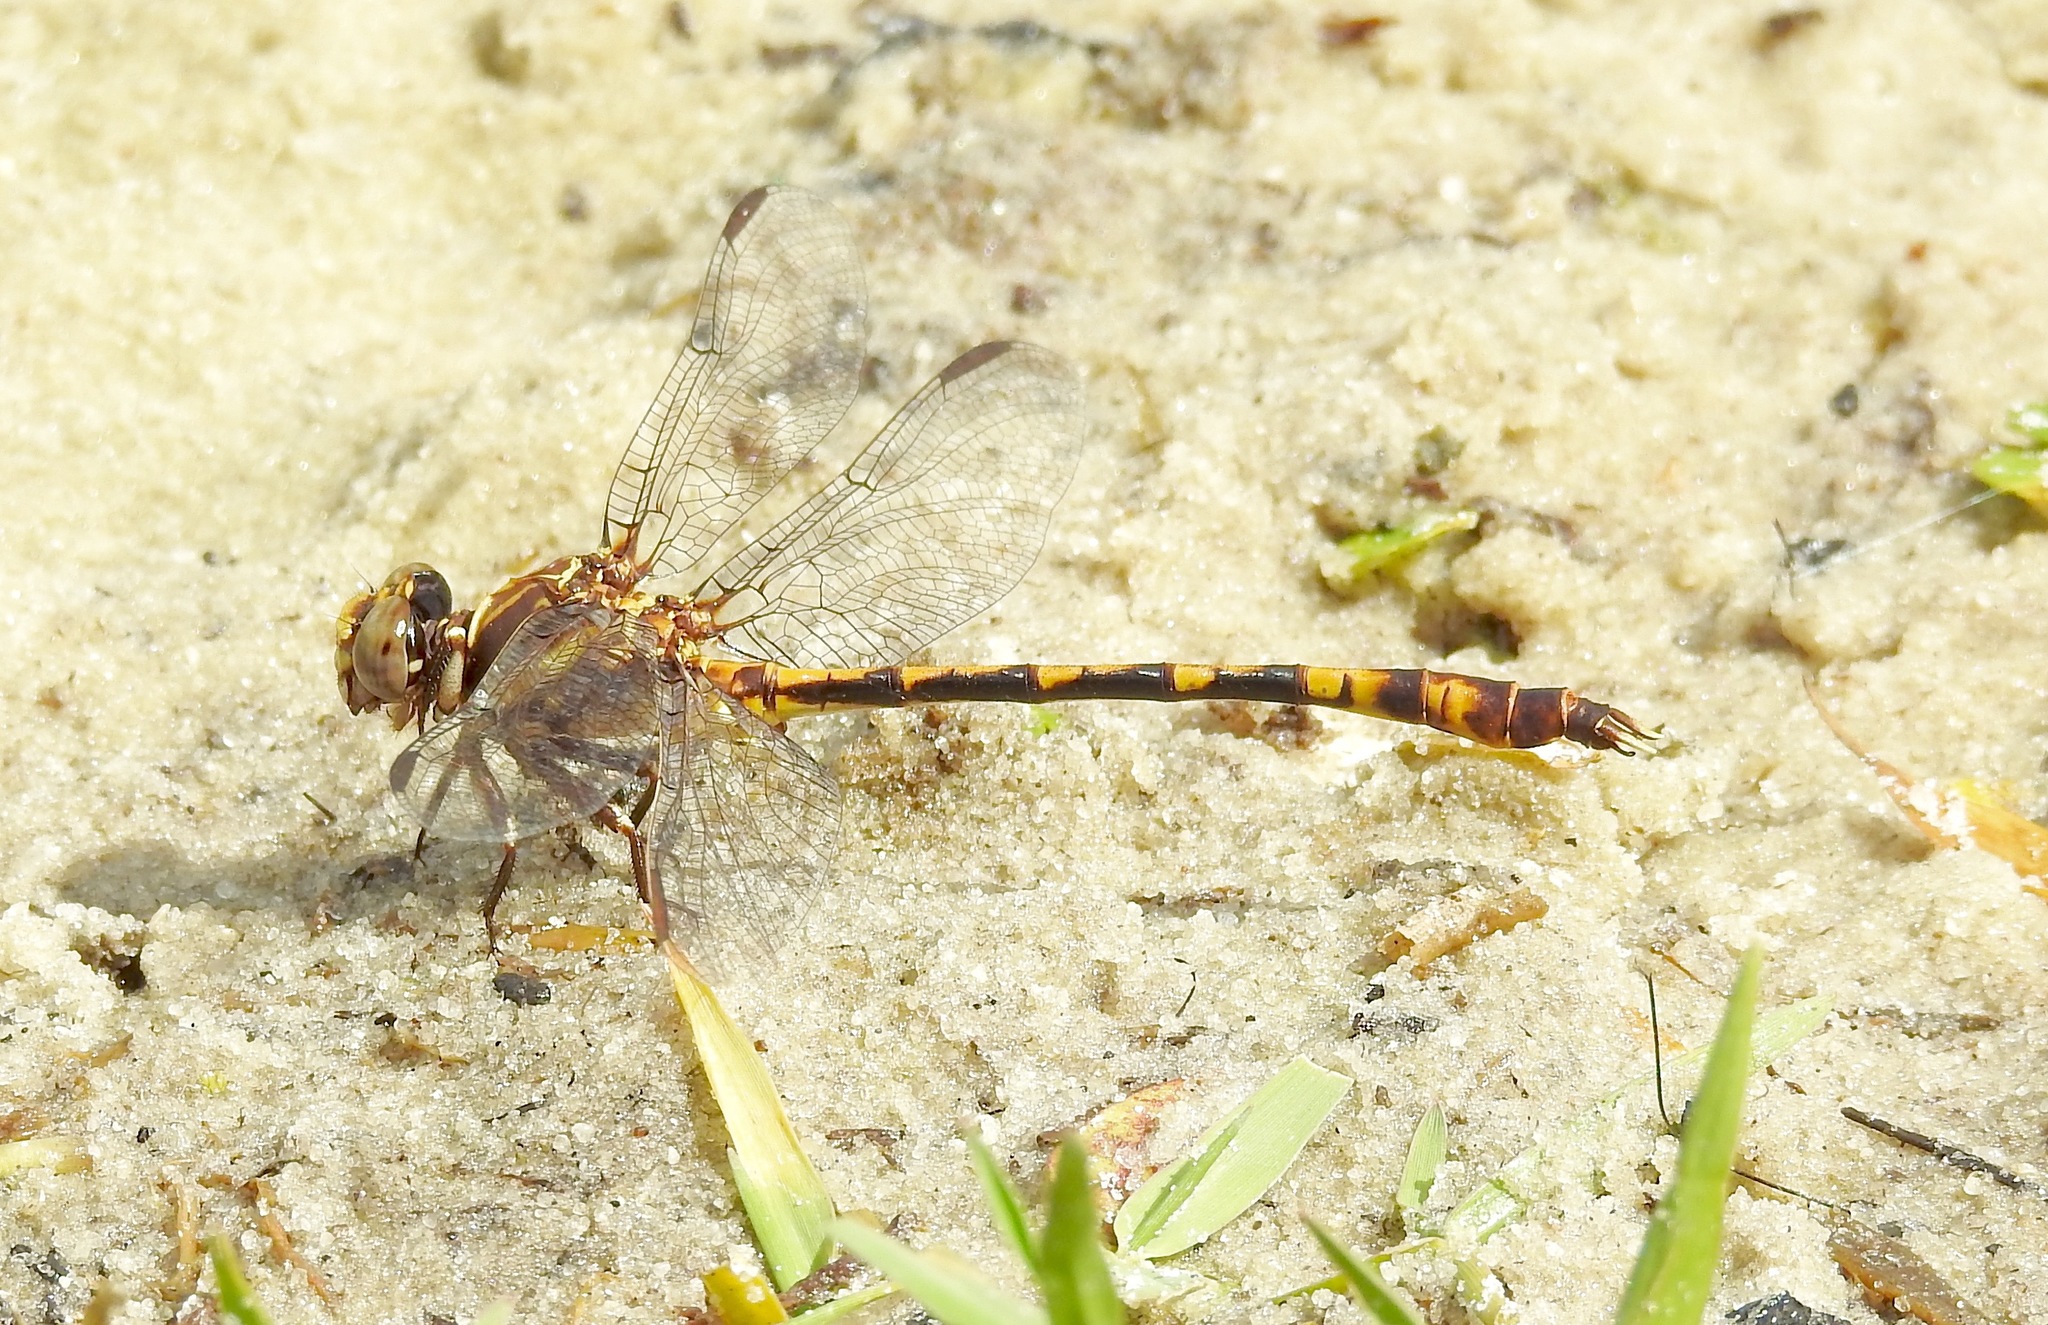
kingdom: Animalia
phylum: Arthropoda
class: Insecta
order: Odonata
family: Gomphidae
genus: Progomphus
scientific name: Progomphus alachuensis
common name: Tawny sanddragon
